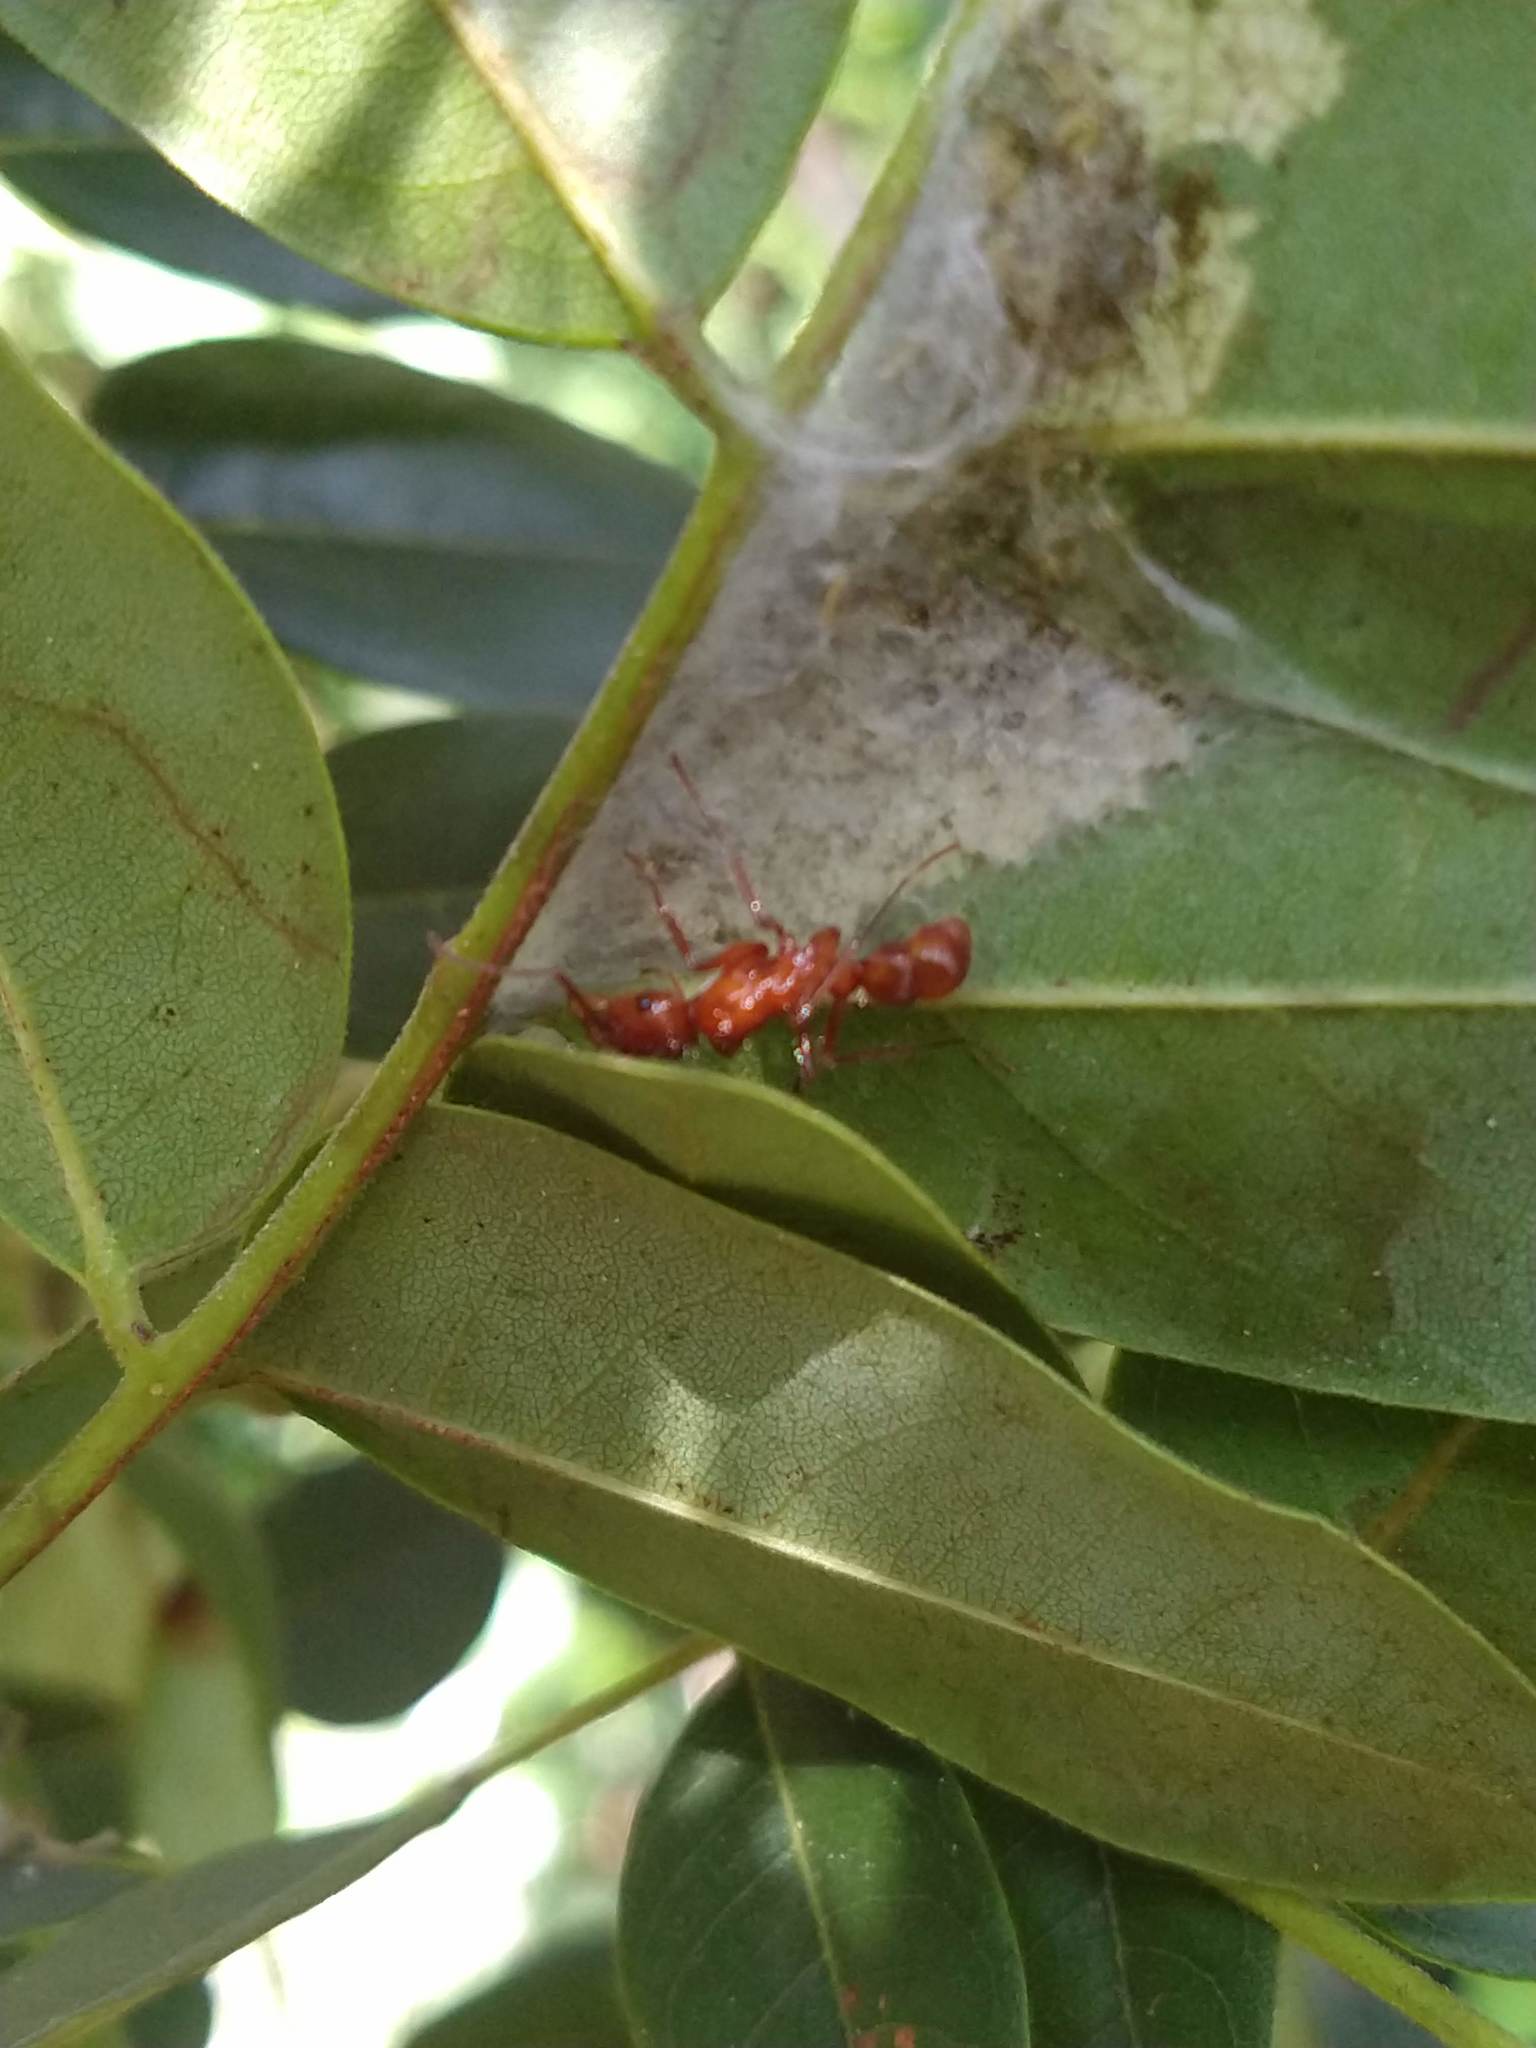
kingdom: Animalia
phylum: Arthropoda
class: Insecta
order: Hymenoptera
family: Formicidae
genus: Ectatomma
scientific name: Ectatomma tuberculatum
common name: Ant
